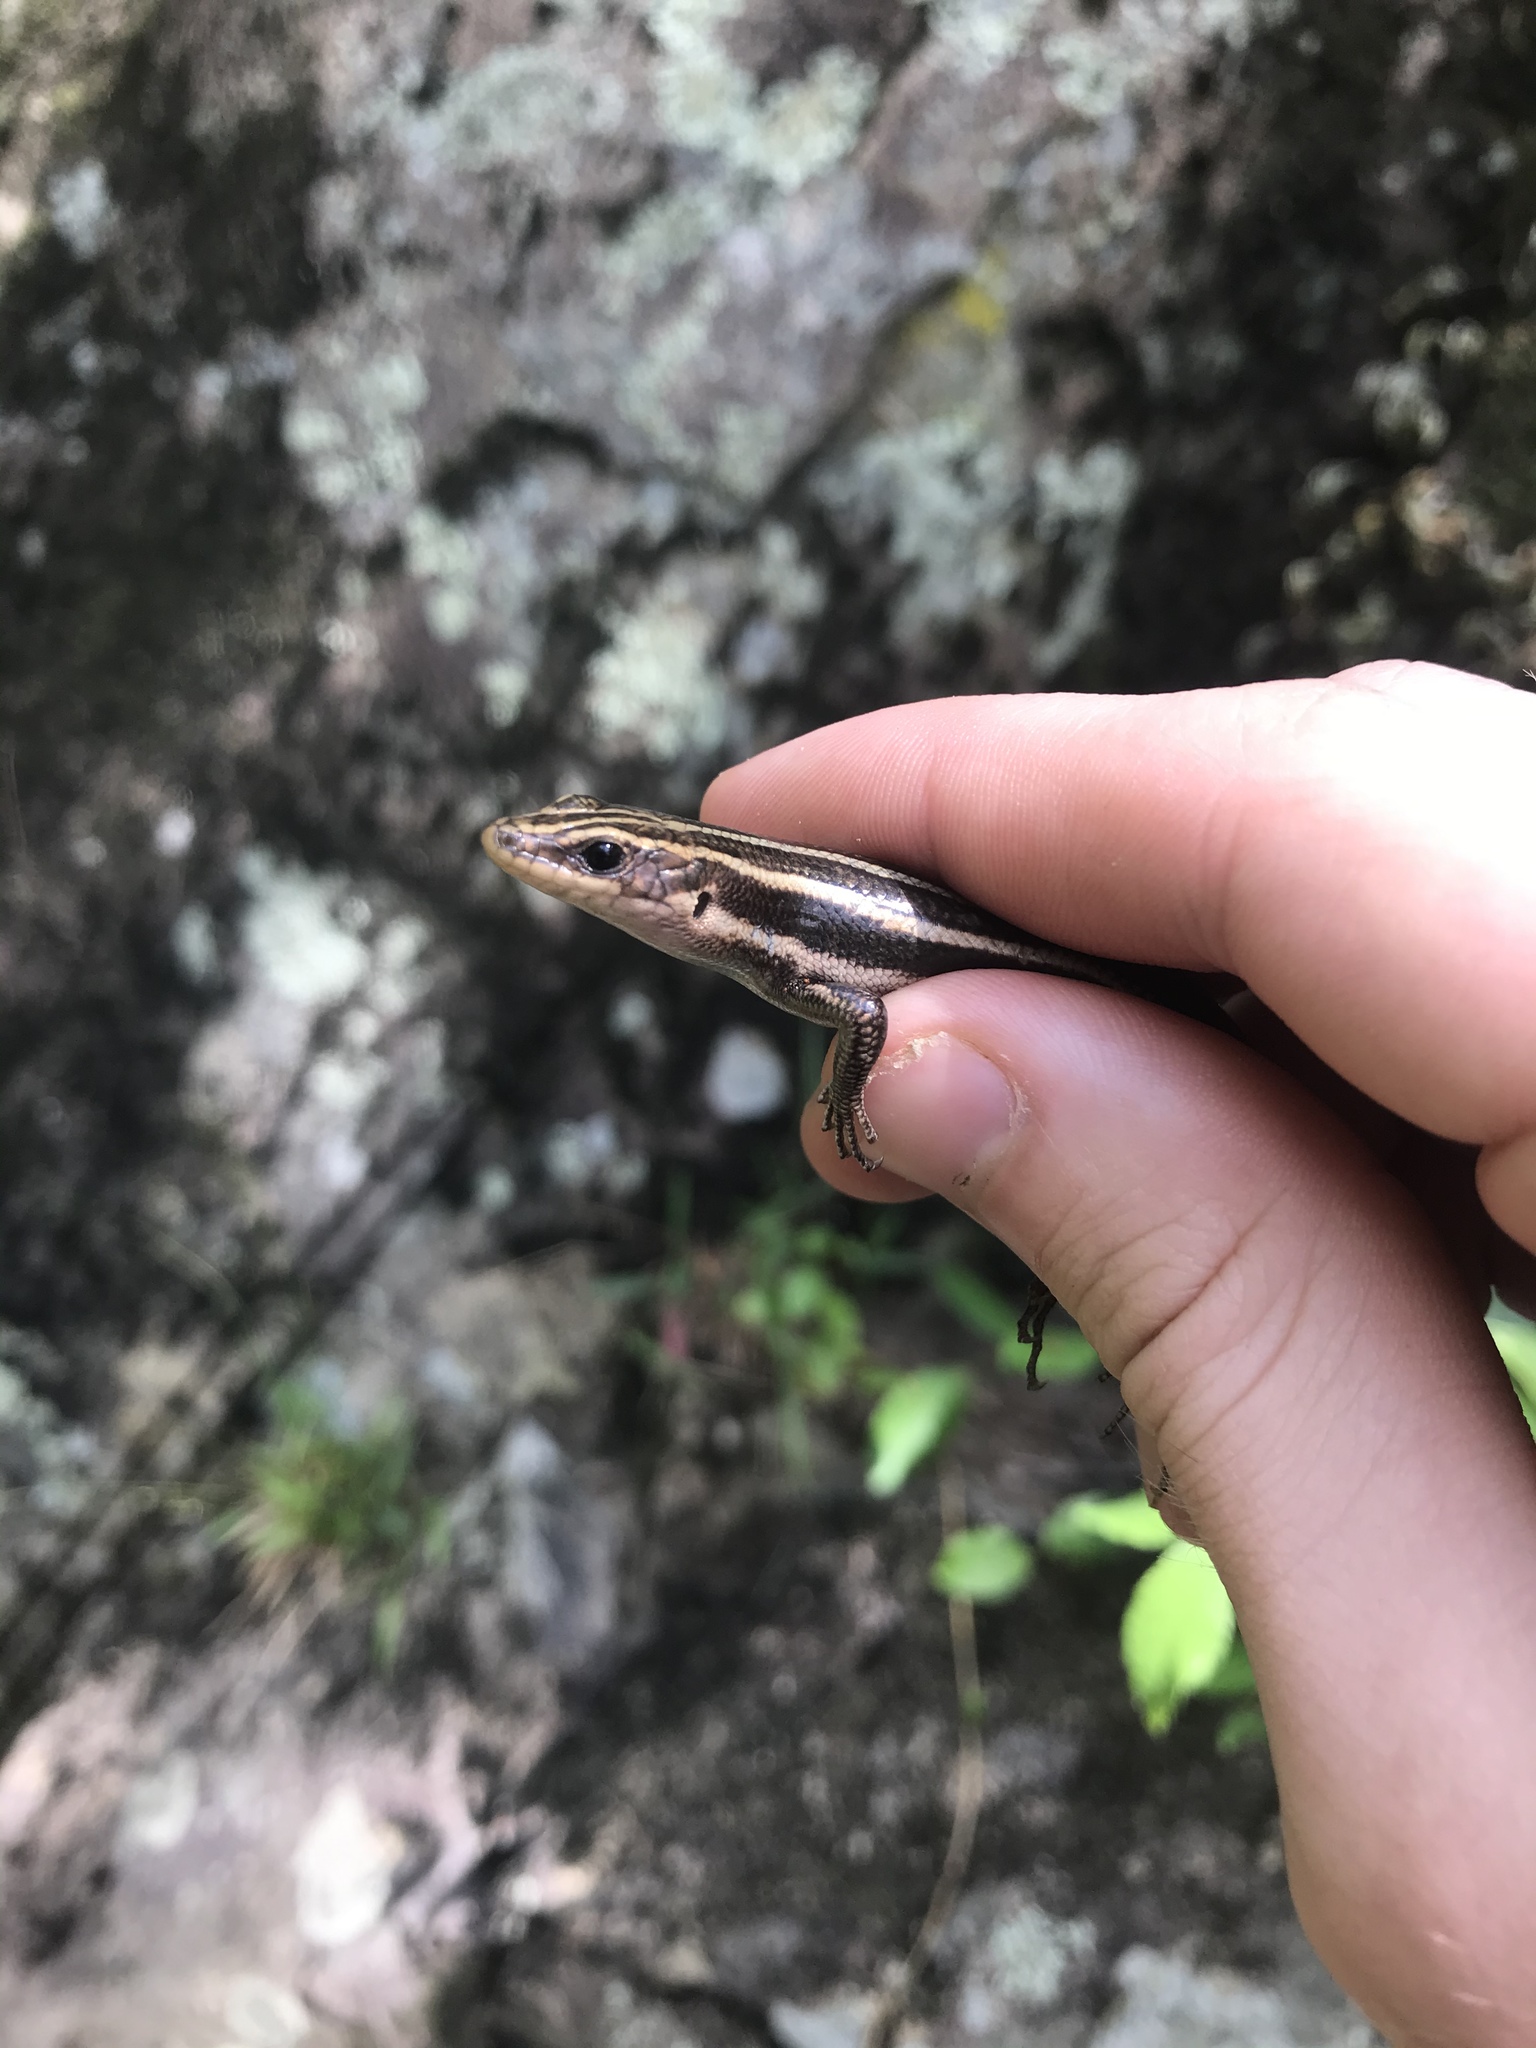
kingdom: Animalia
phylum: Chordata
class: Squamata
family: Scincidae
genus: Plestiodon
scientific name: Plestiodon fasciatus
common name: Five-lined skink
